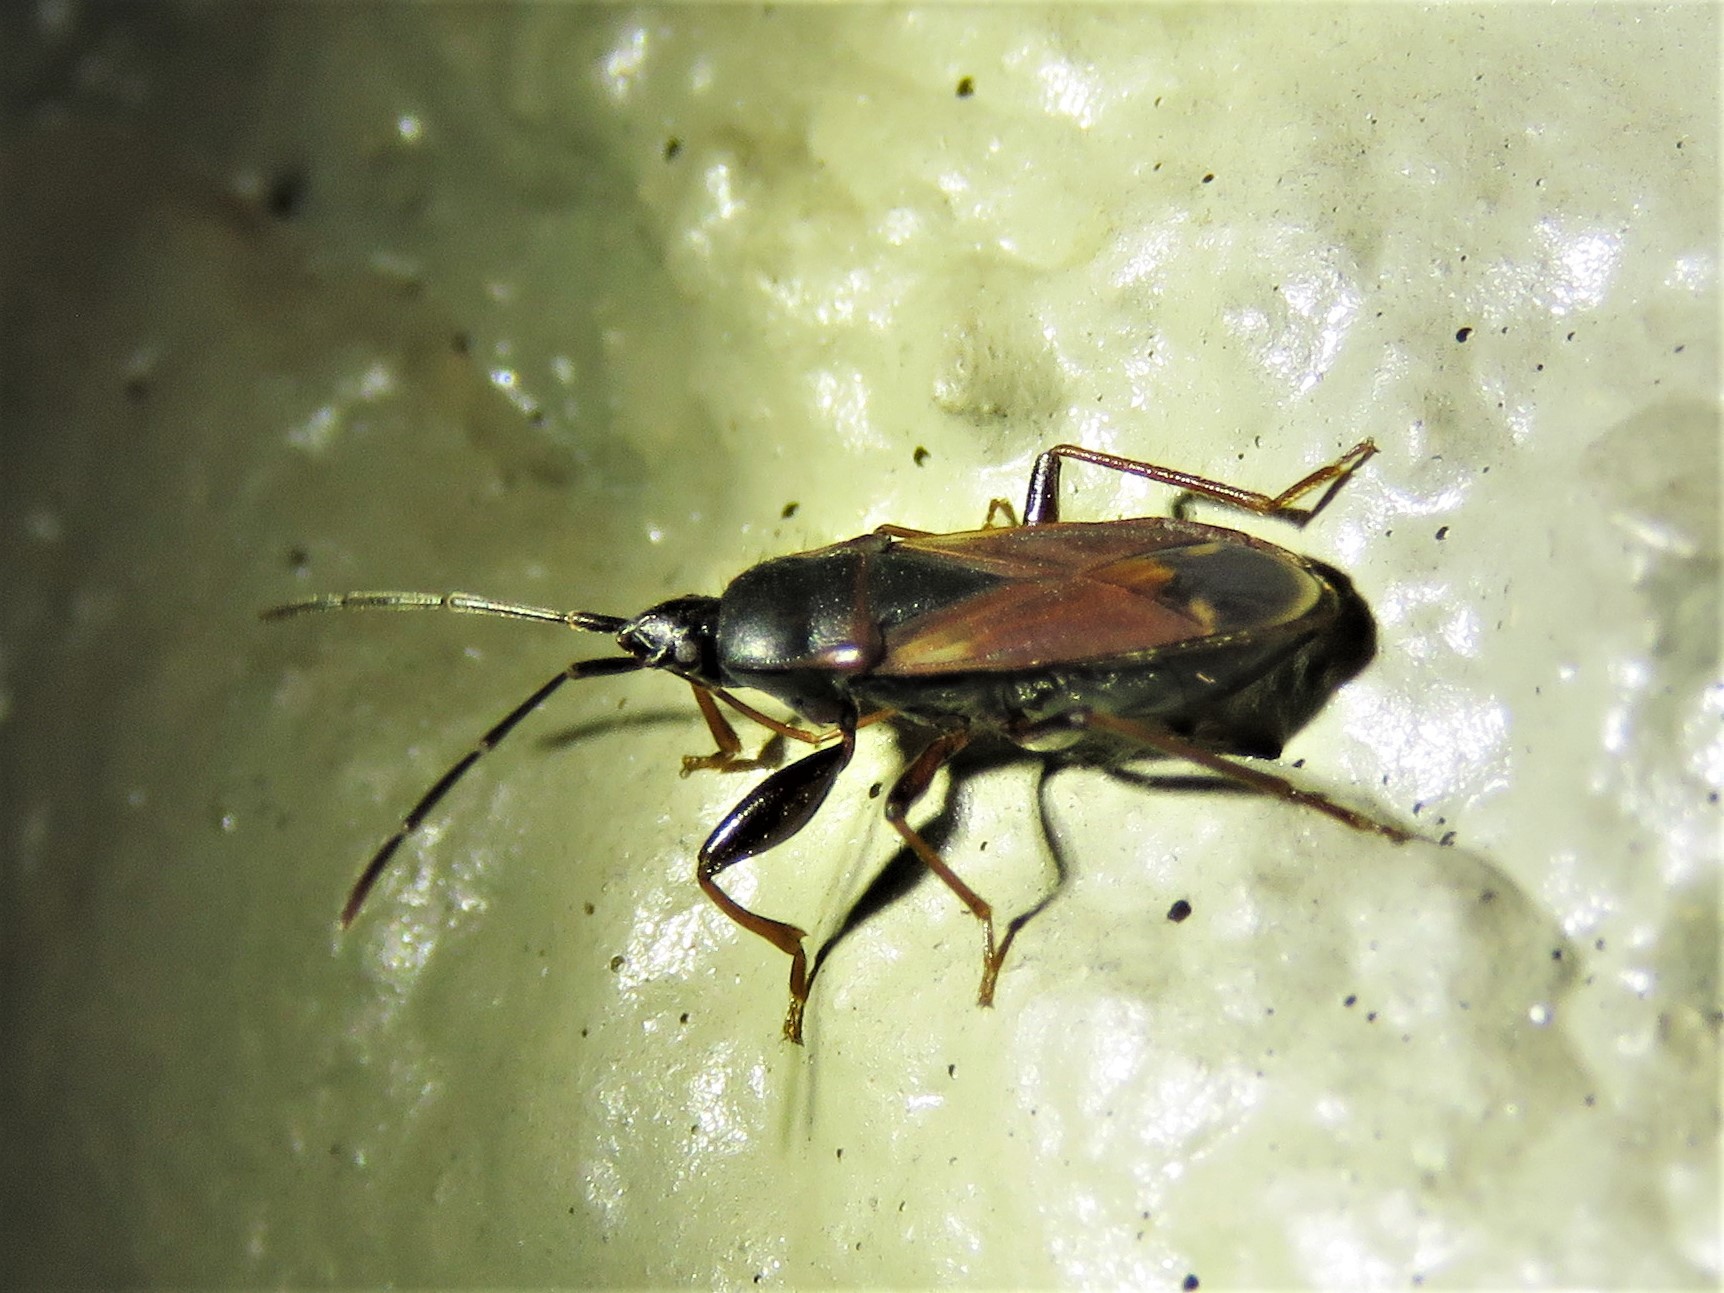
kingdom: Animalia
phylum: Arthropoda
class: Insecta
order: Hemiptera
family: Rhyparochromidae
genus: Eremocoris
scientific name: Eremocoris depressus
